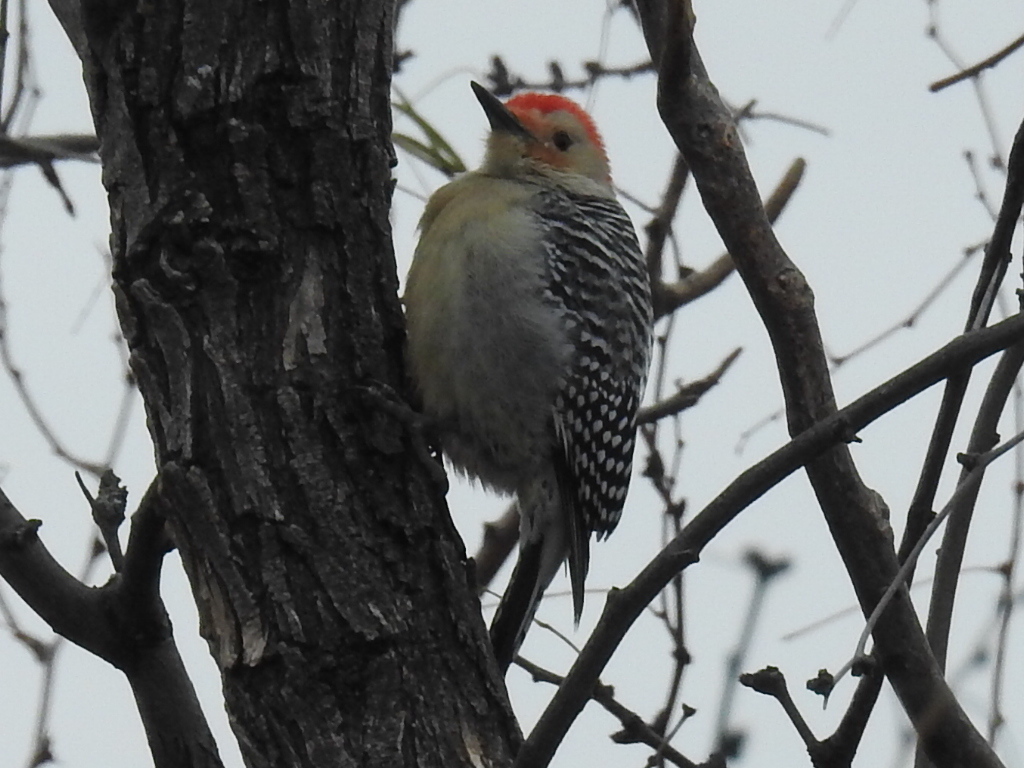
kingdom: Animalia
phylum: Chordata
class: Aves
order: Piciformes
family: Picidae
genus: Melanerpes
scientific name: Melanerpes carolinus
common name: Red-bellied woodpecker
